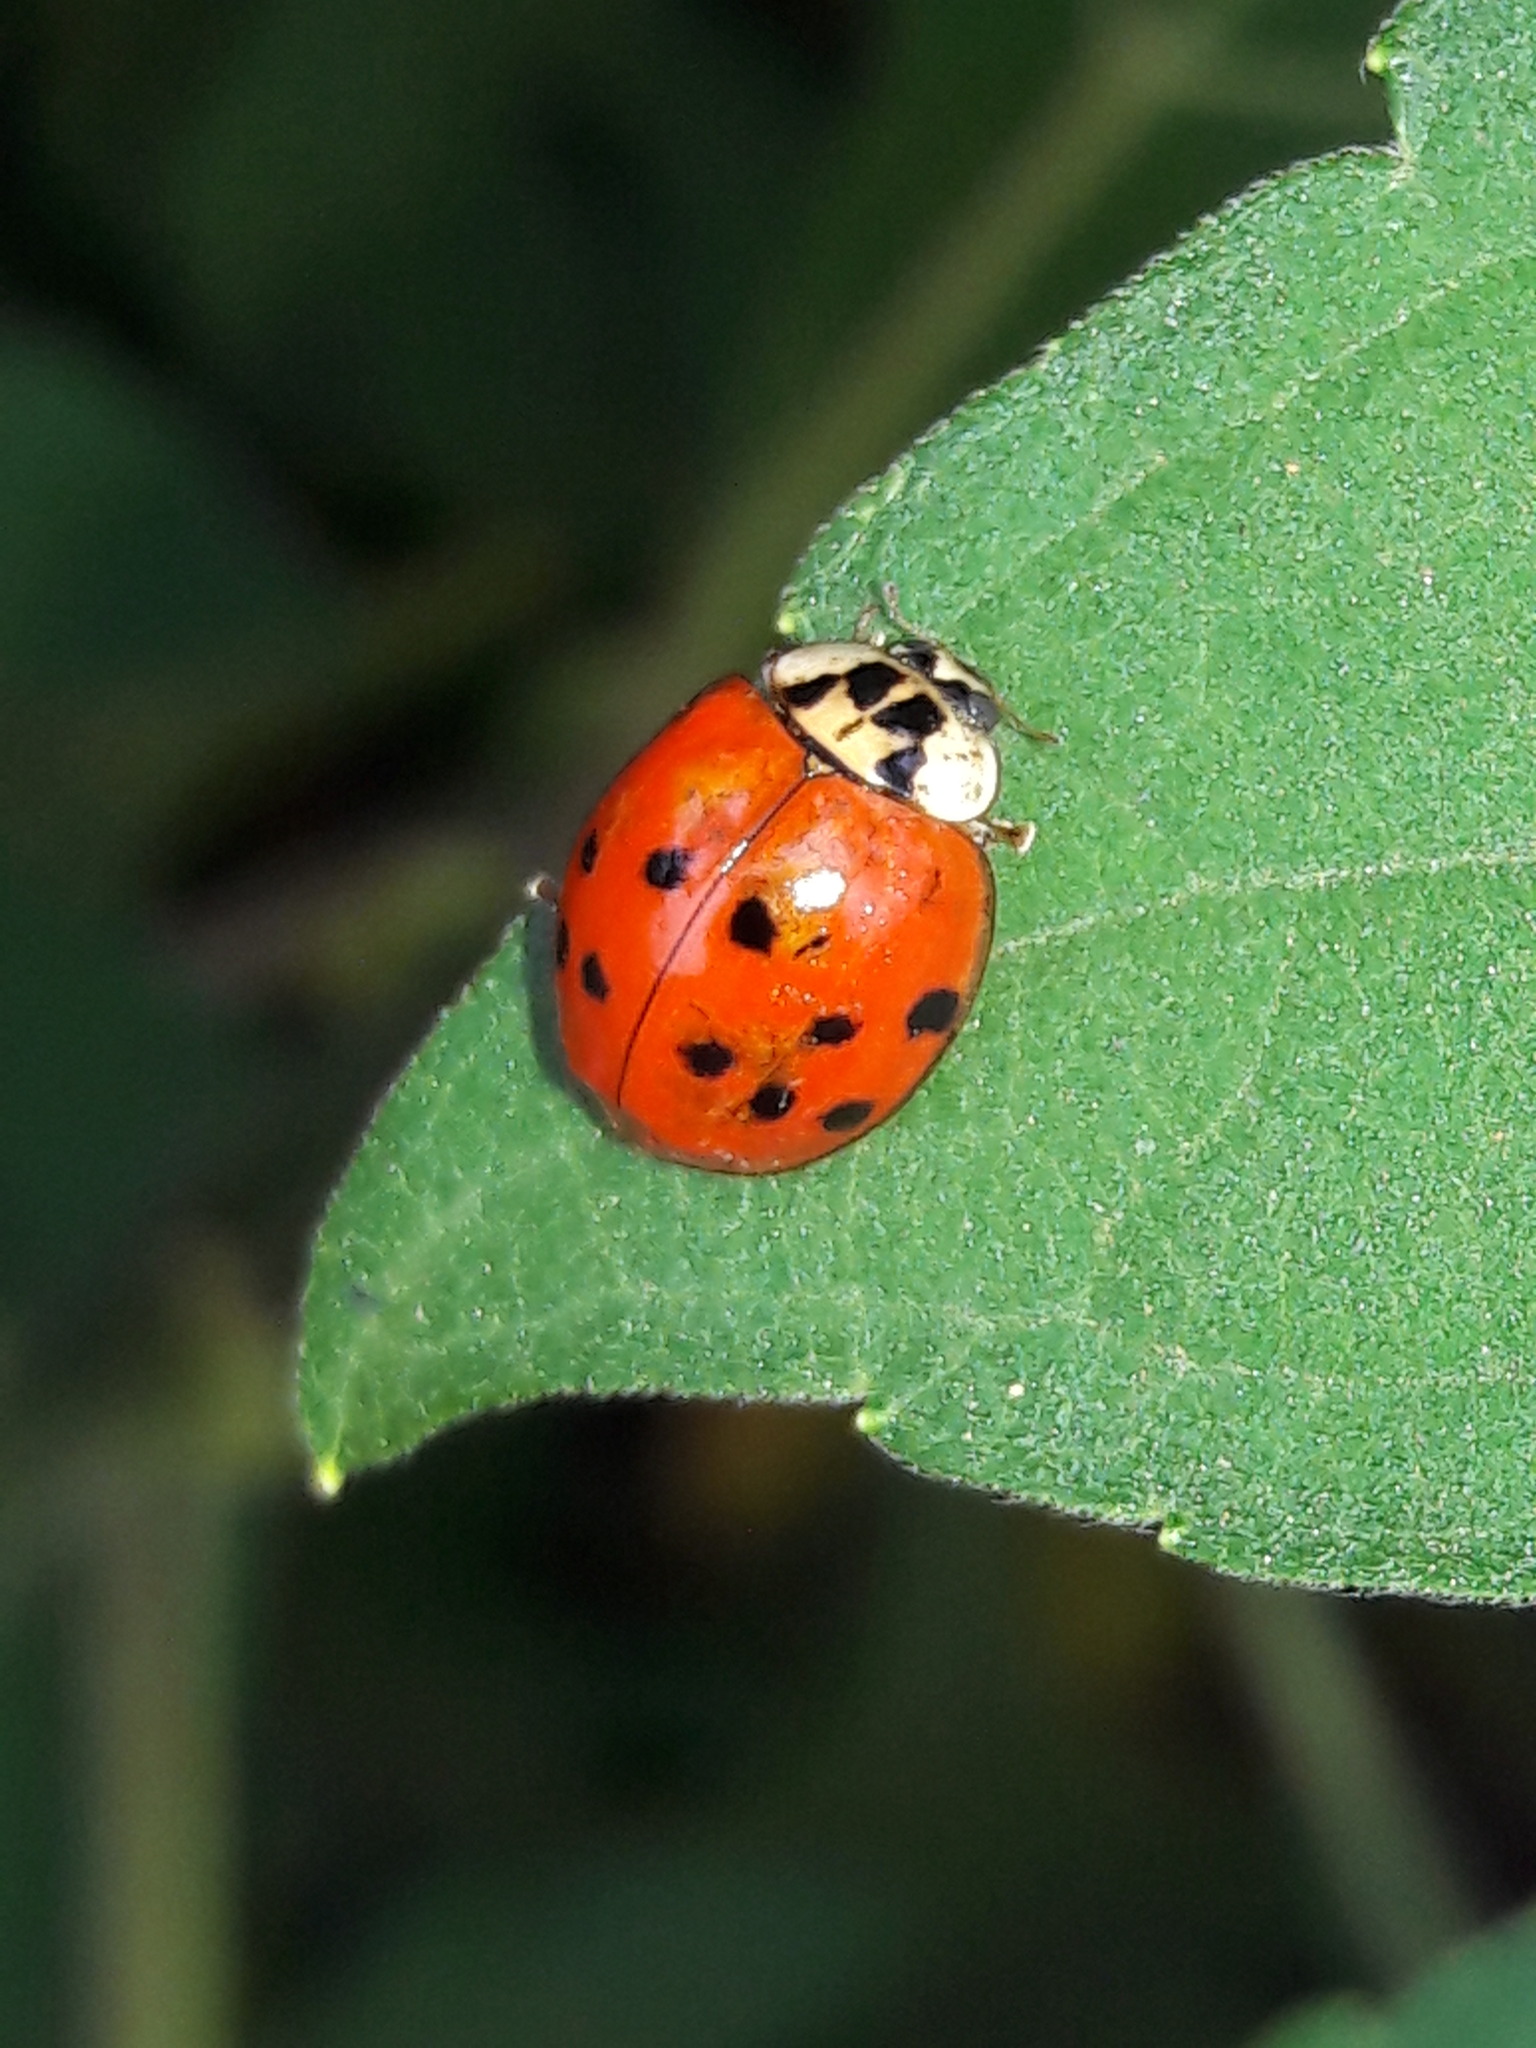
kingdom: Animalia
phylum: Arthropoda
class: Insecta
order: Coleoptera
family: Coccinellidae
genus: Harmonia
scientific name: Harmonia axyridis
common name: Harlequin ladybird
